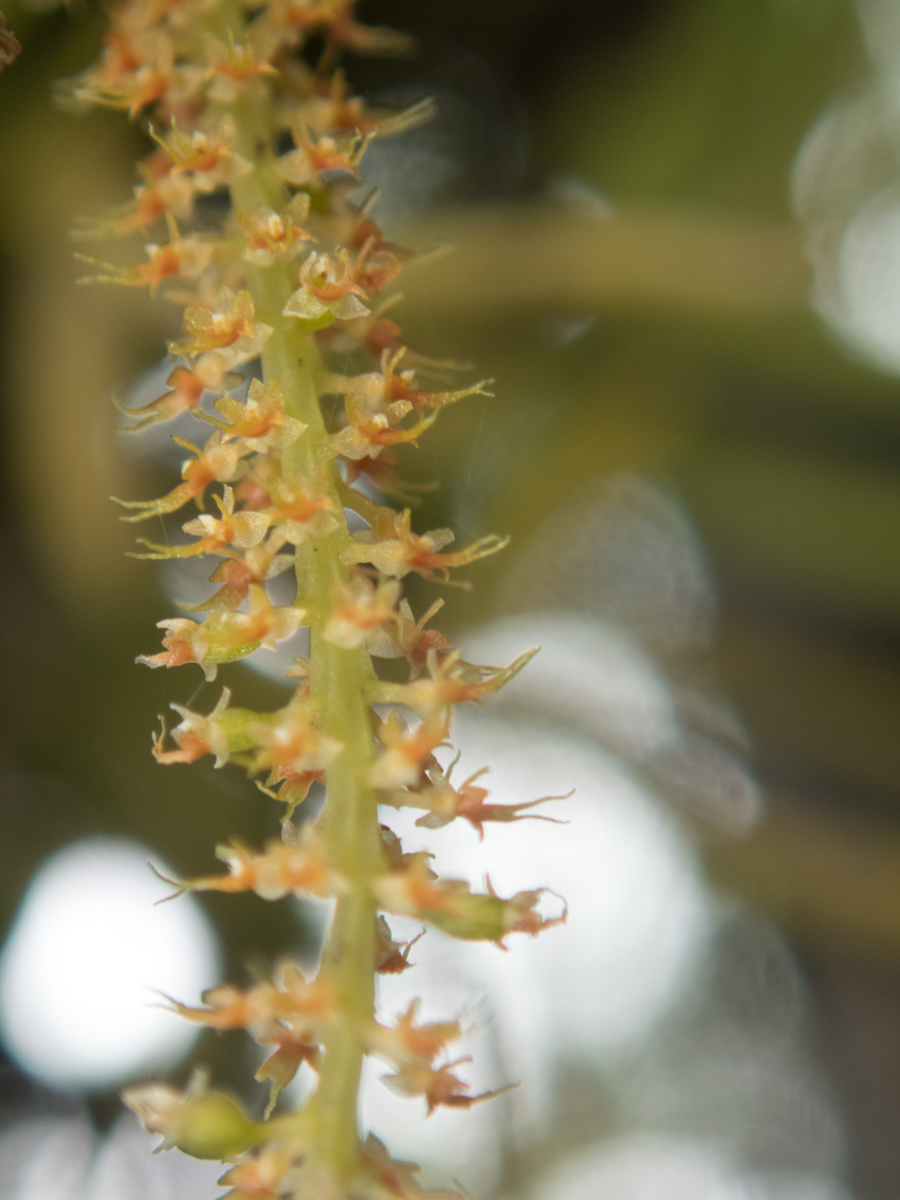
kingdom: Plantae
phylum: Tracheophyta
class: Liliopsida
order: Asparagales
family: Orchidaceae
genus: Oberonia
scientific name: Oberonia falcata
